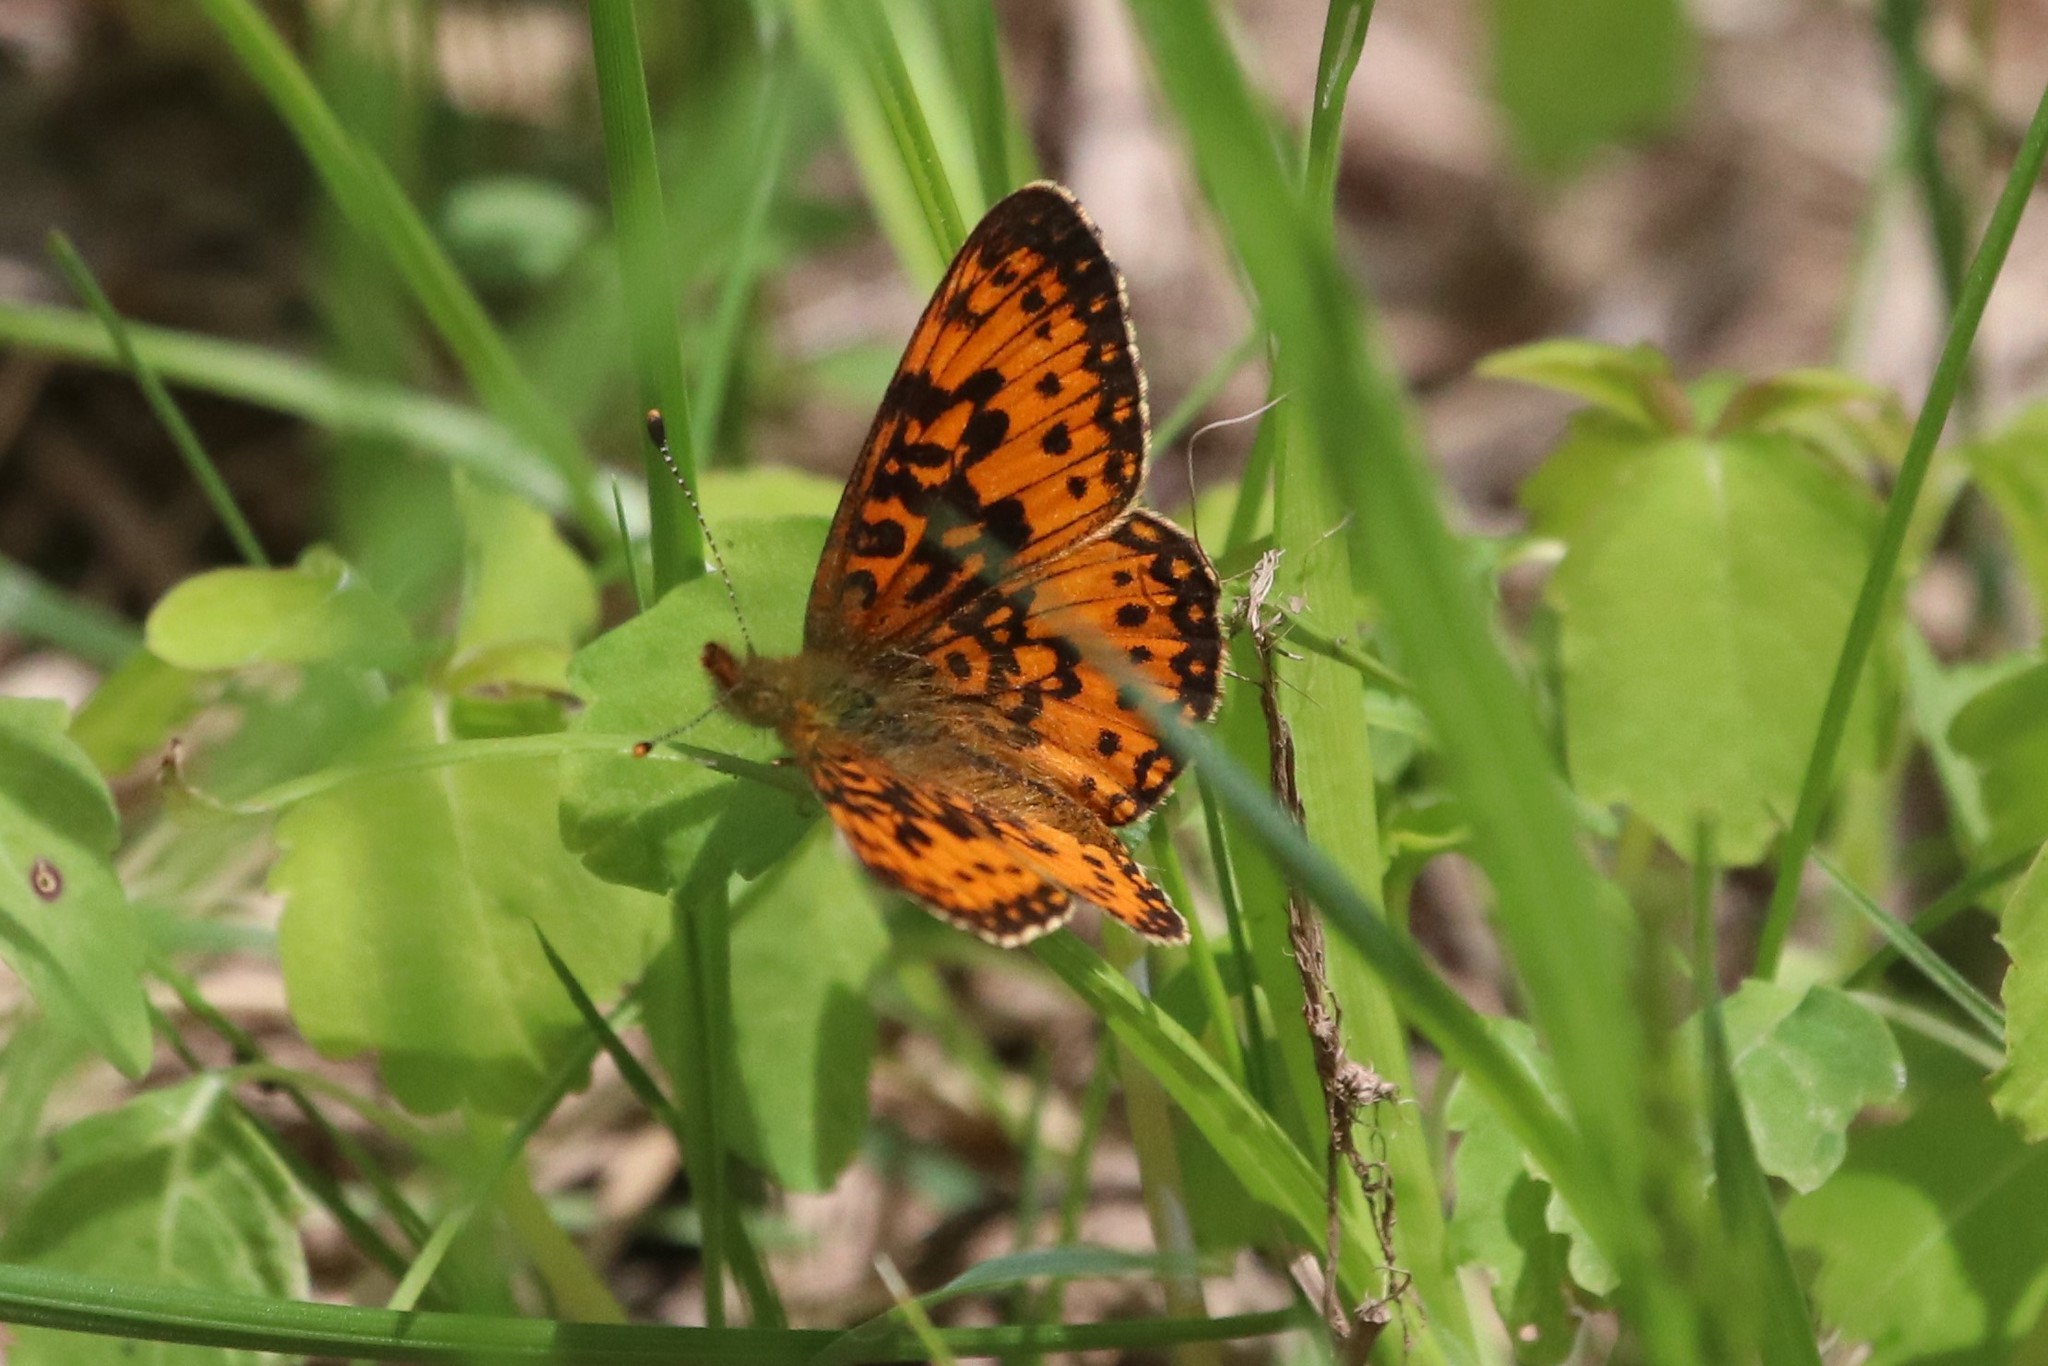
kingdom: Animalia
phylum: Arthropoda
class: Insecta
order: Lepidoptera
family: Nymphalidae
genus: Boloria
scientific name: Boloria
